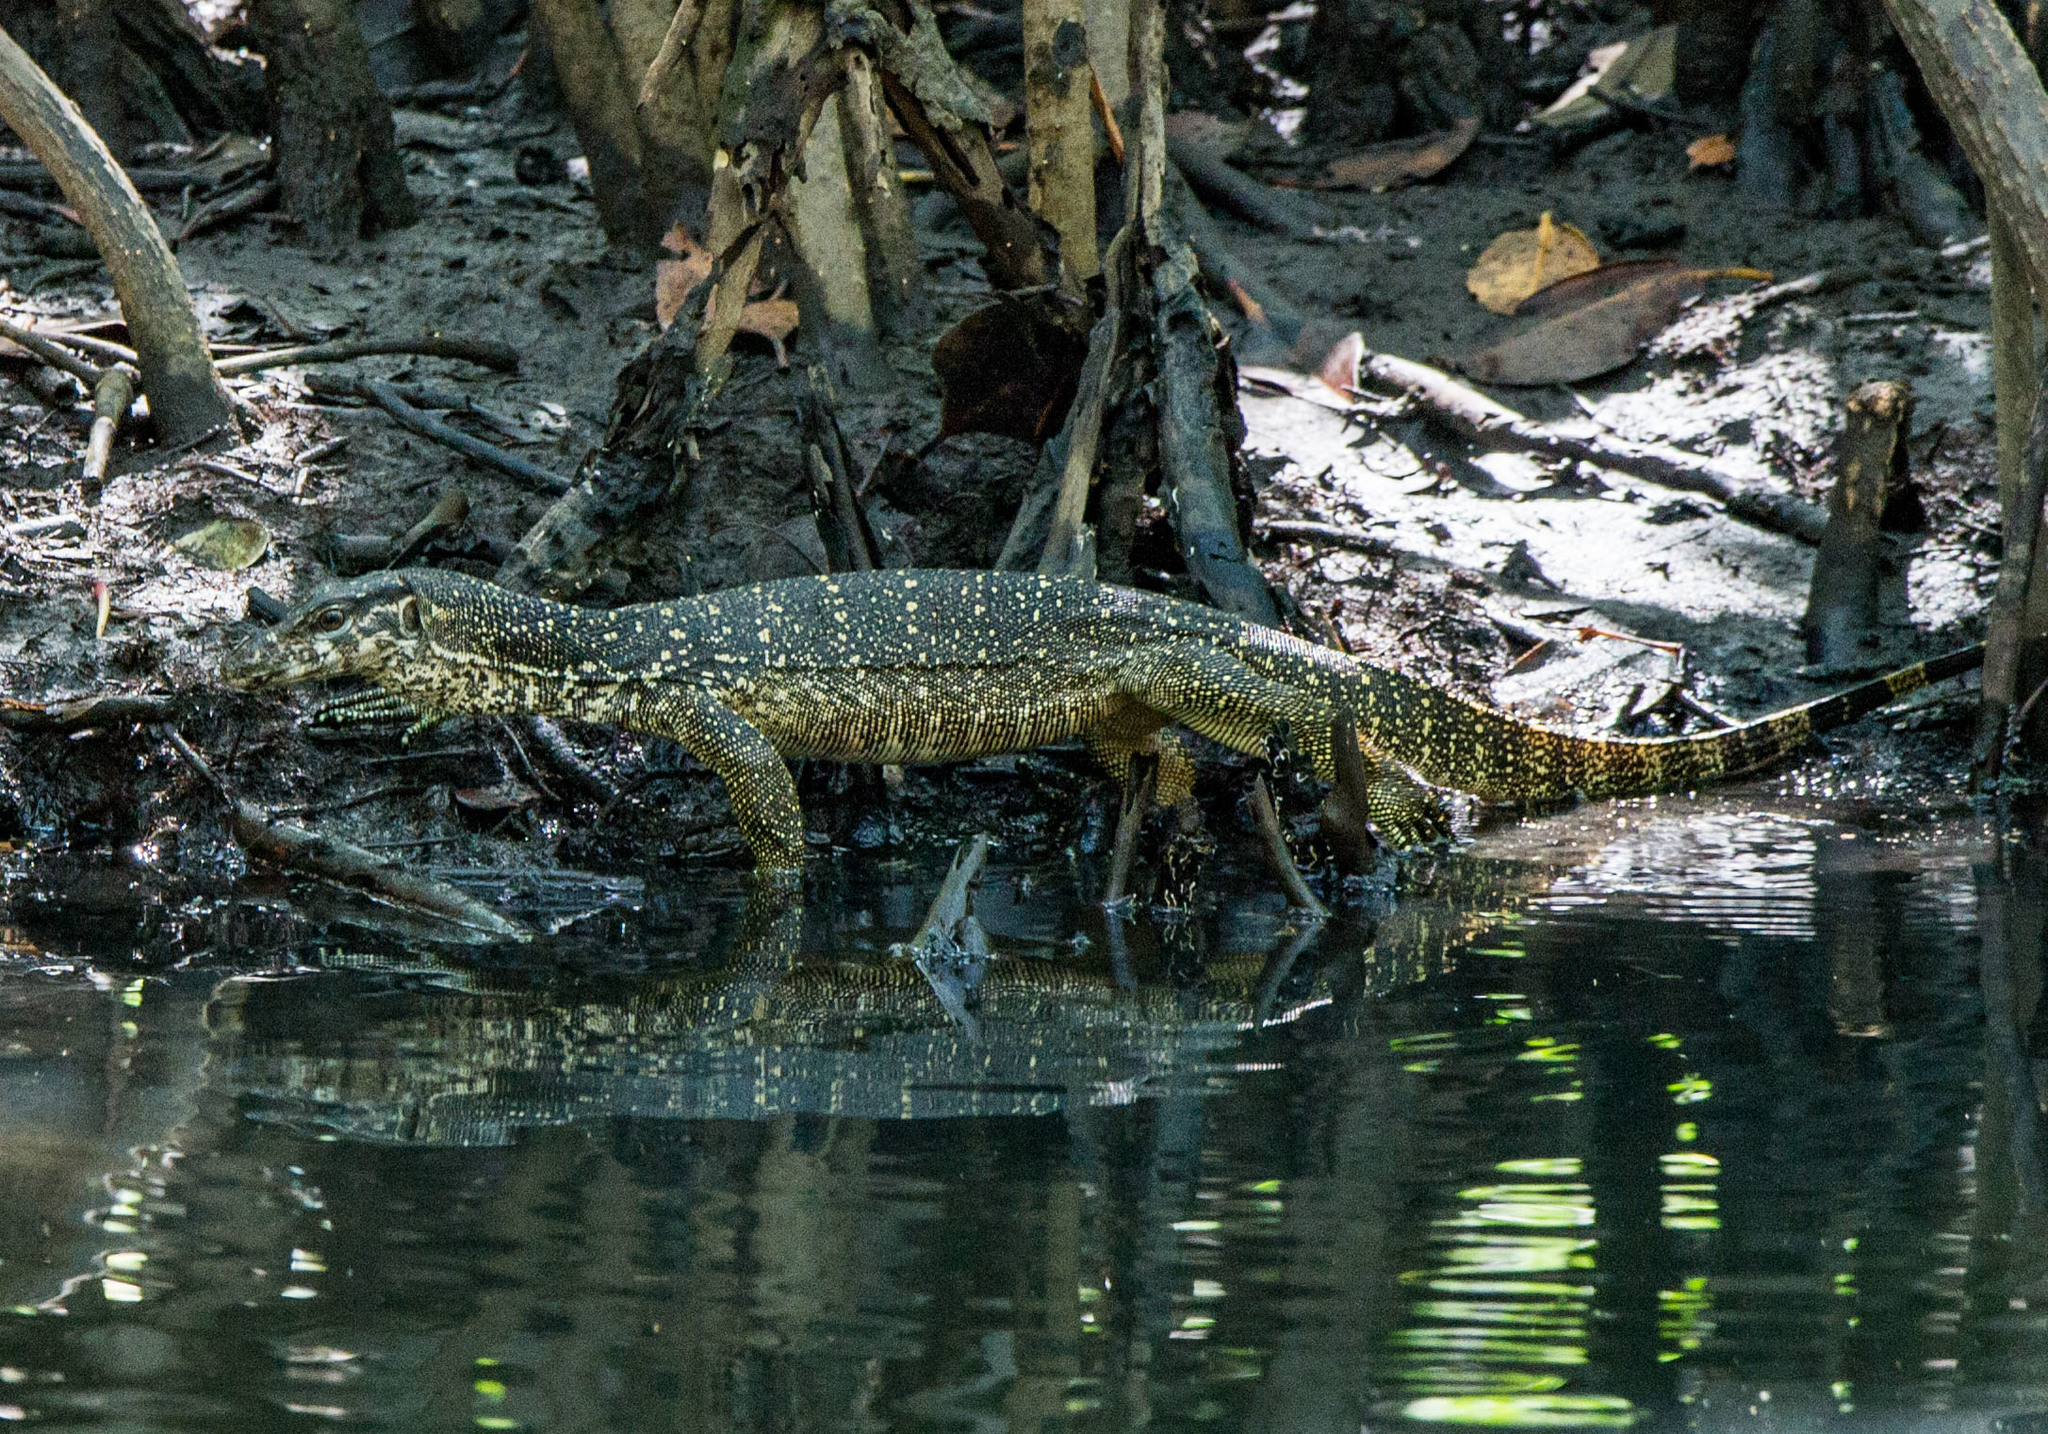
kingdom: Animalia
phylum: Chordata
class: Squamata
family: Varanidae
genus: Varanus
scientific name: Varanus palawanensis
